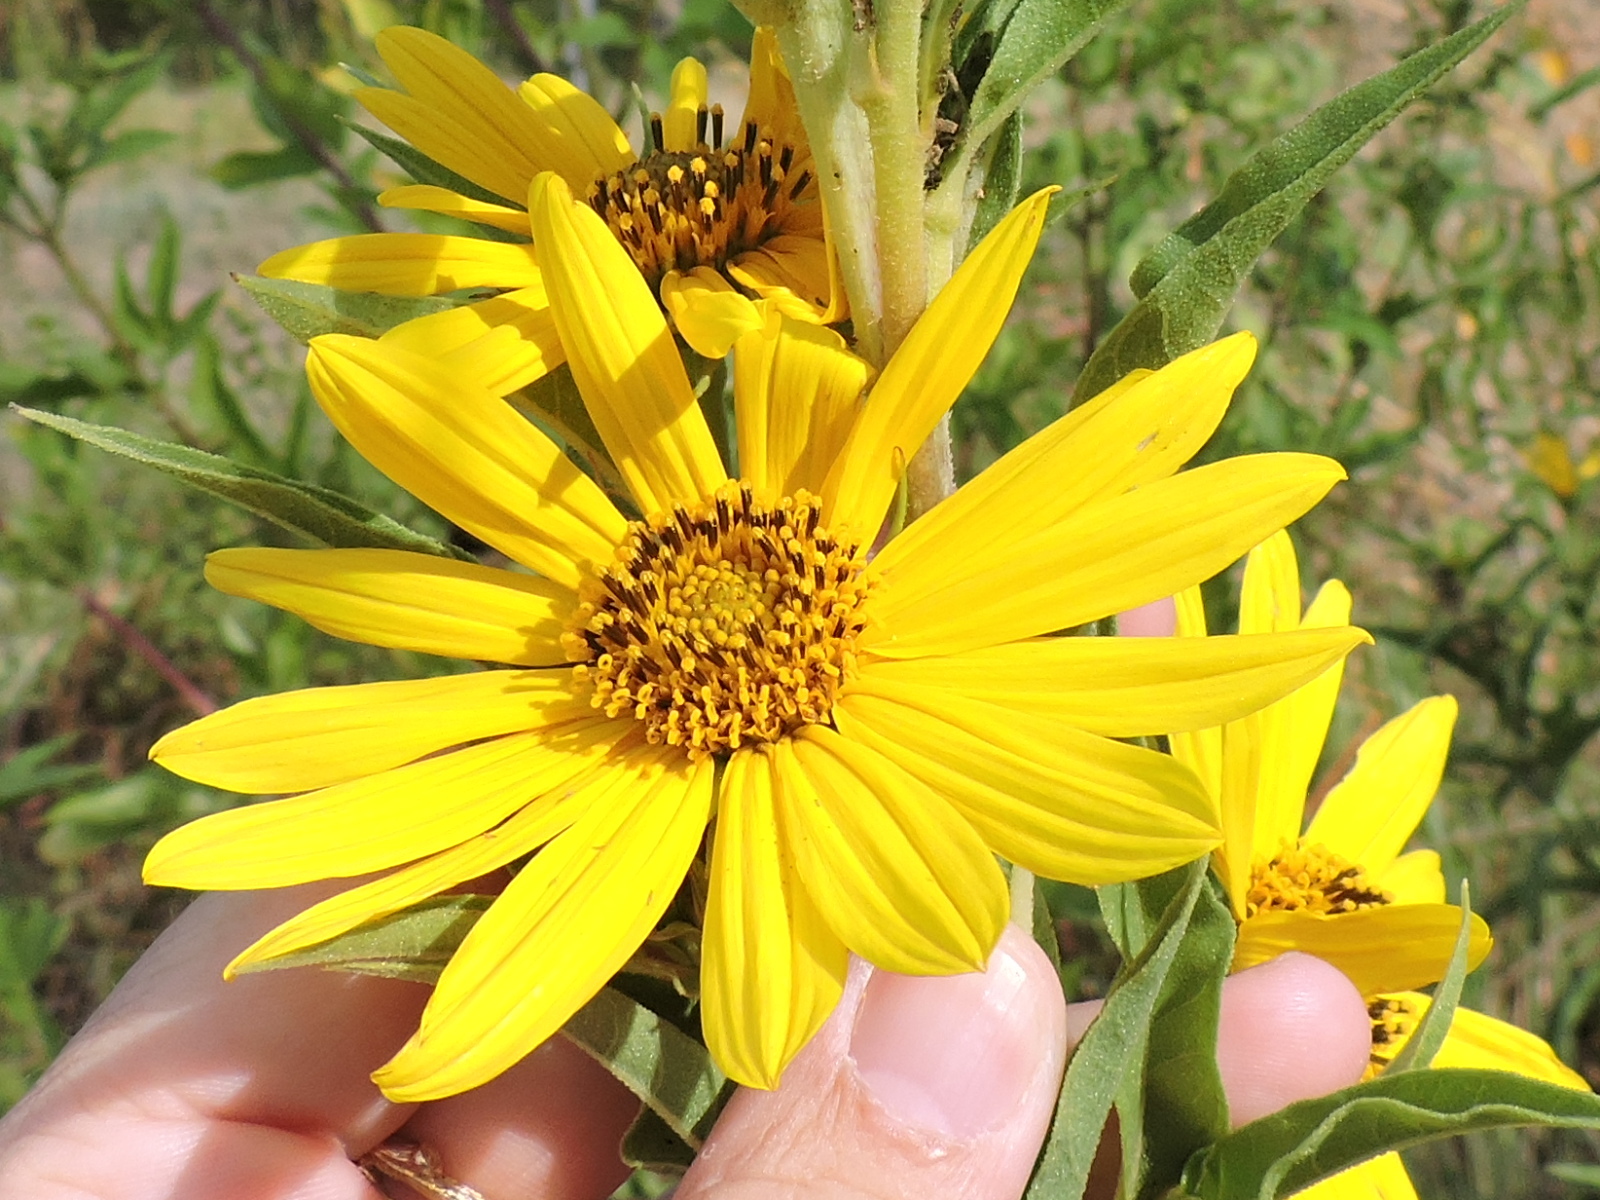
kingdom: Plantae
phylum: Tracheophyta
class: Magnoliopsida
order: Asterales
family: Asteraceae
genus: Helianthus
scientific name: Helianthus maximiliani
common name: Maximilian's sunflower
